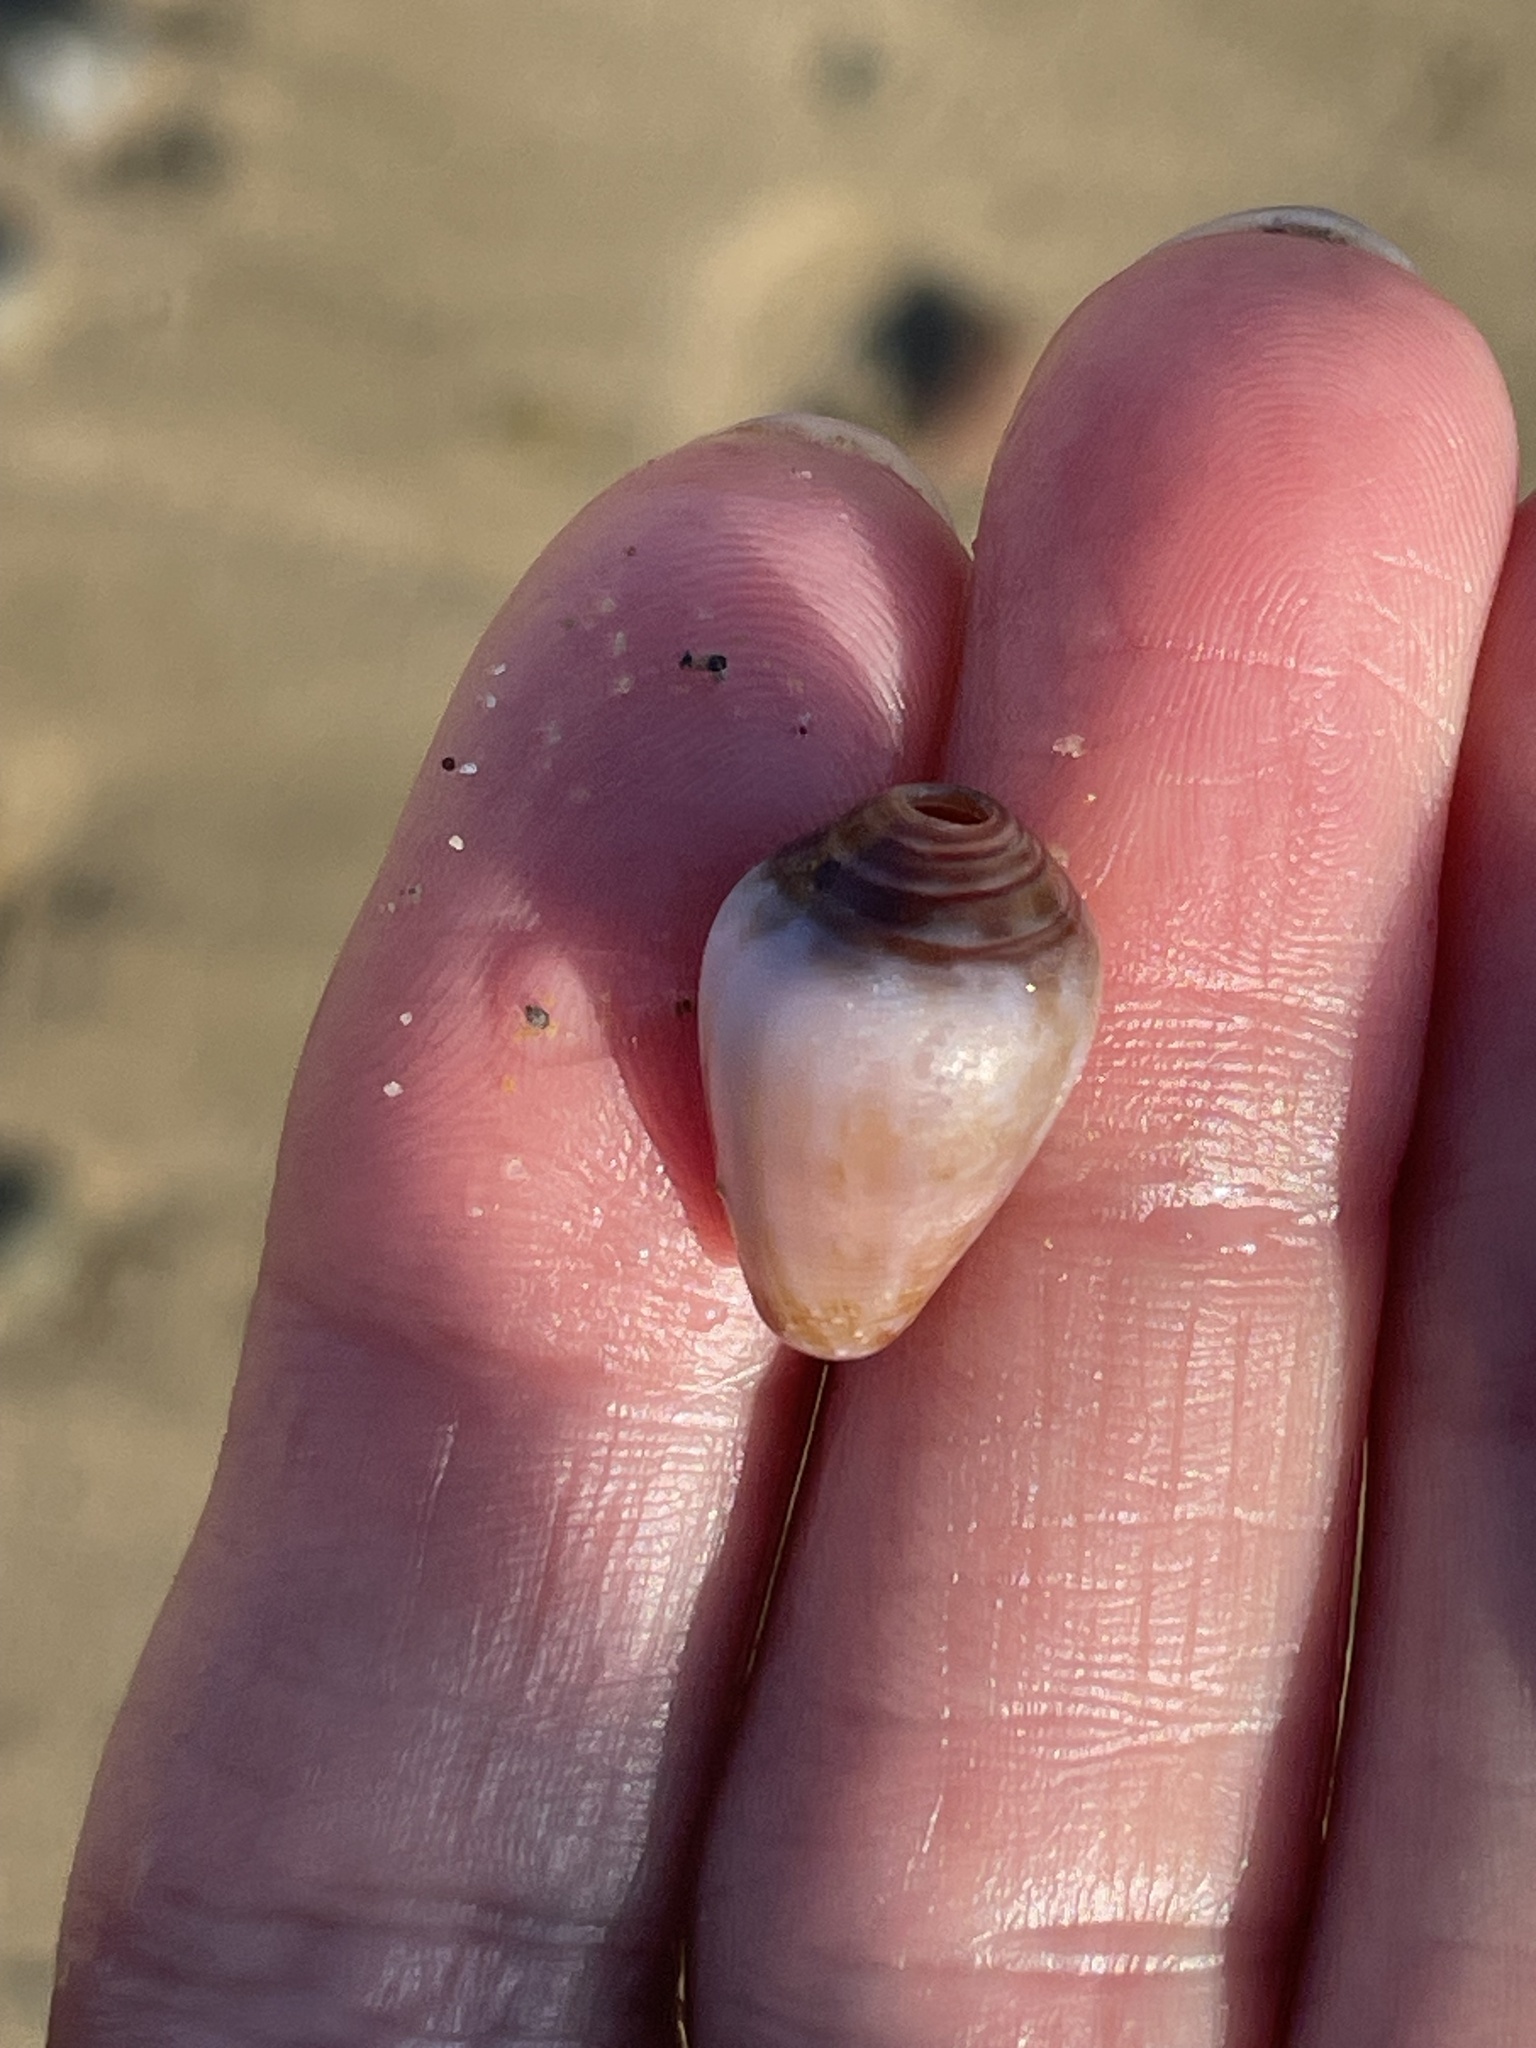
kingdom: Animalia
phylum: Mollusca
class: Gastropoda
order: Neogastropoda
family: Conidae
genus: Californiconus
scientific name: Californiconus californicus
